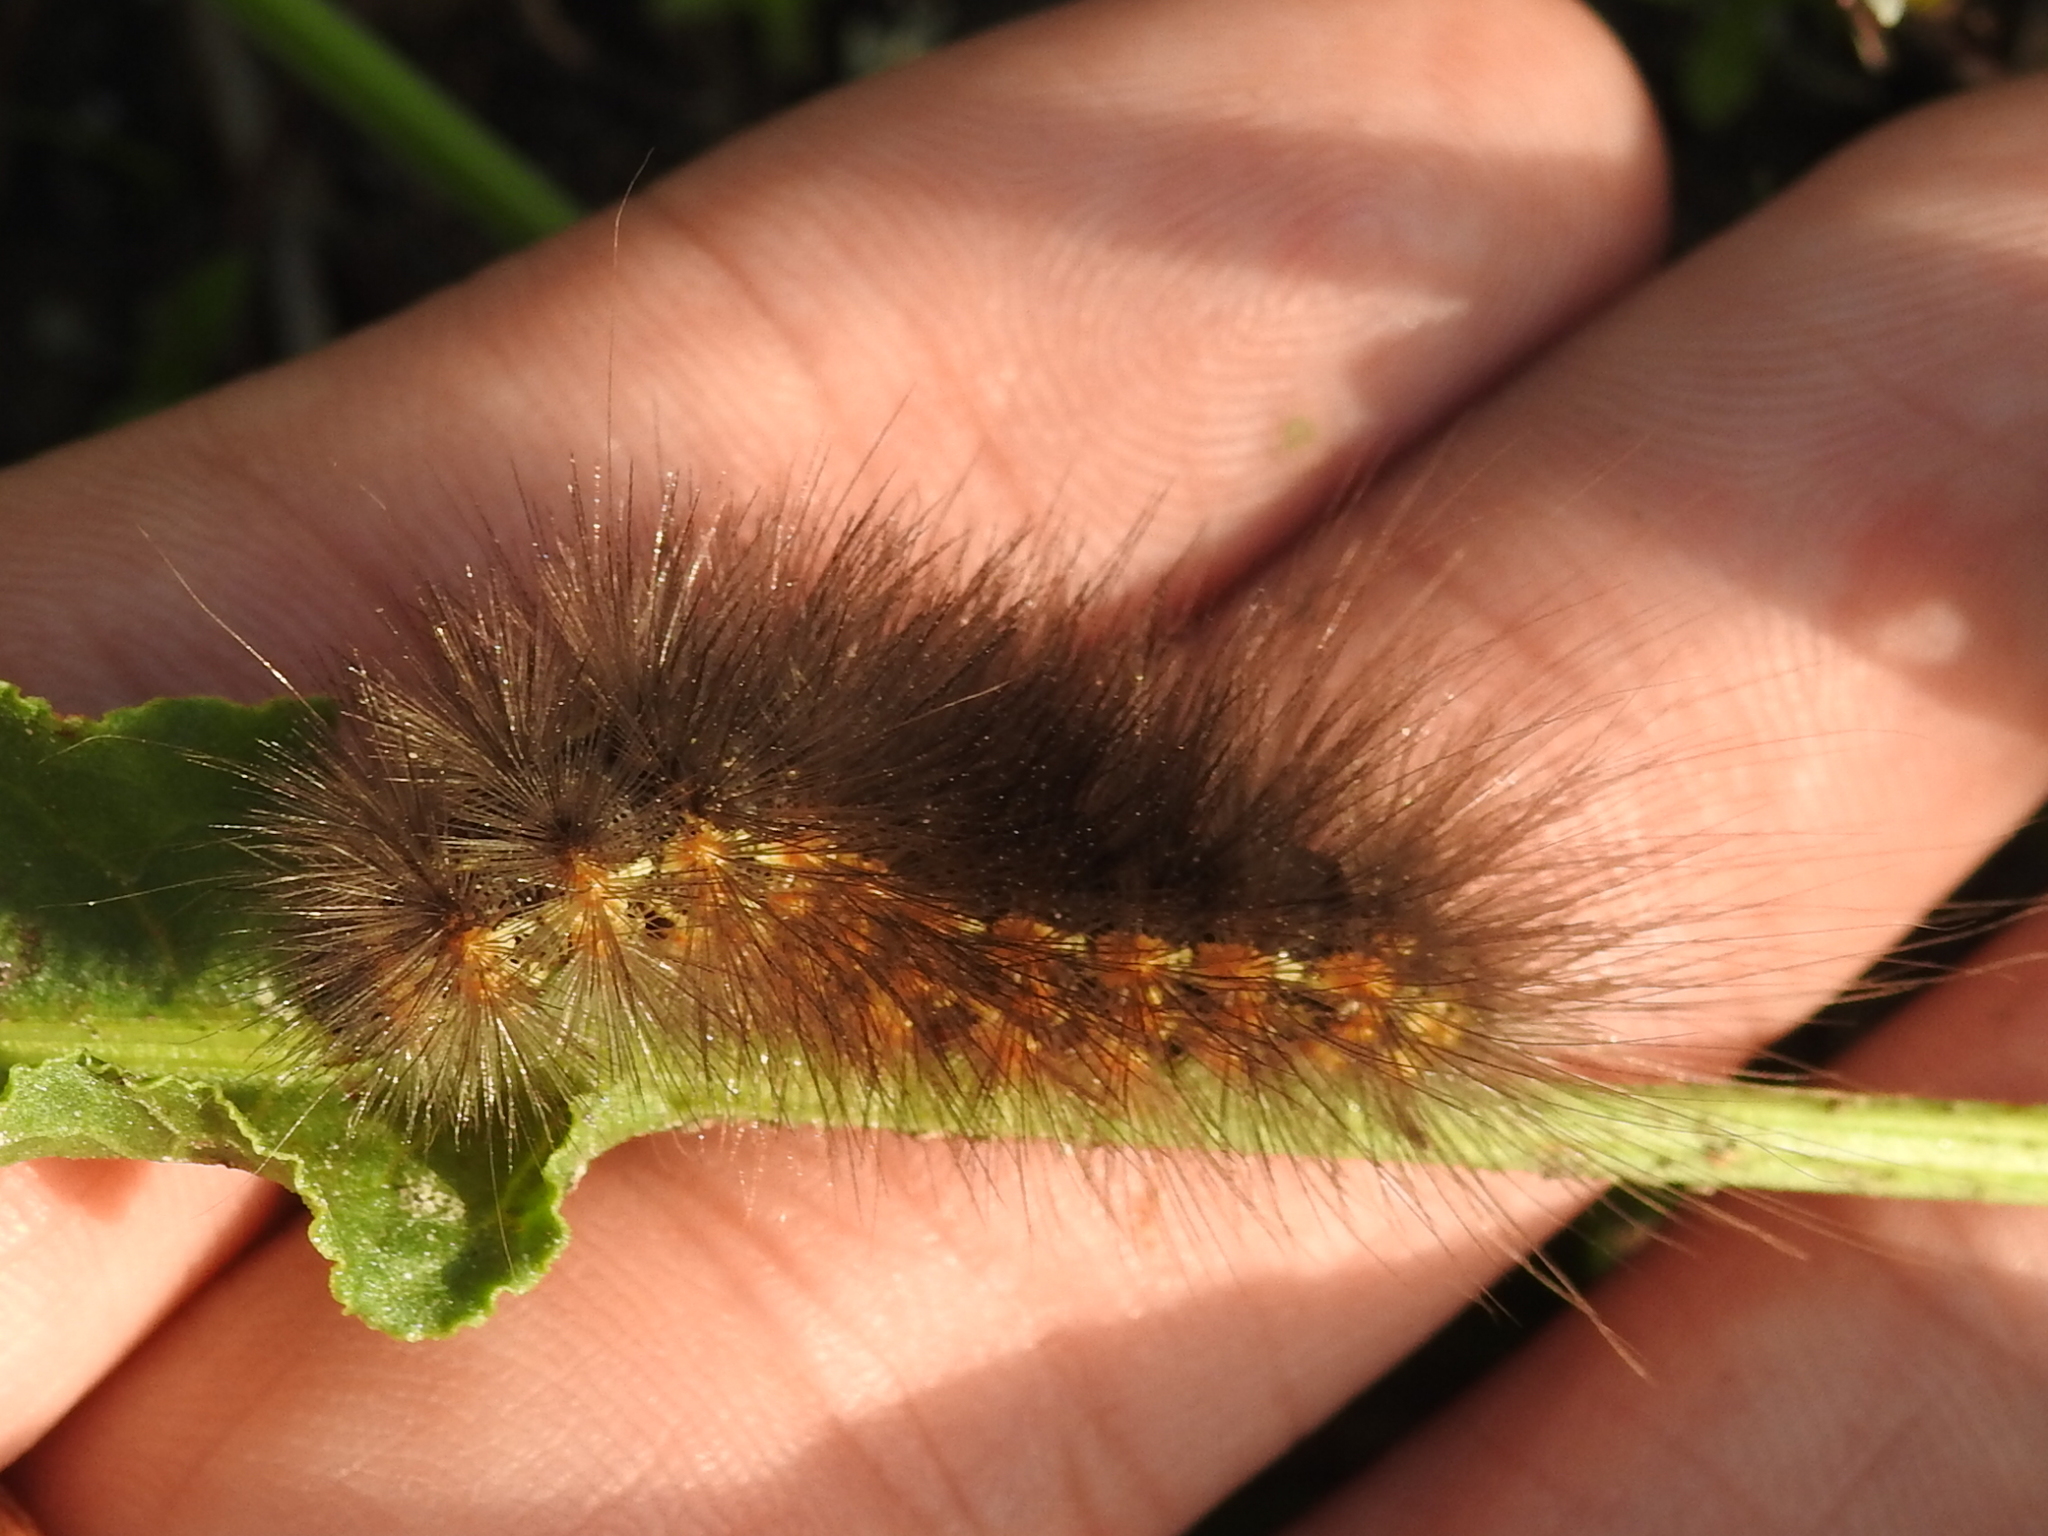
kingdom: Animalia
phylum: Arthropoda
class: Insecta
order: Lepidoptera
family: Erebidae
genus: Estigmene
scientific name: Estigmene acrea
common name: Salt marsh moth
